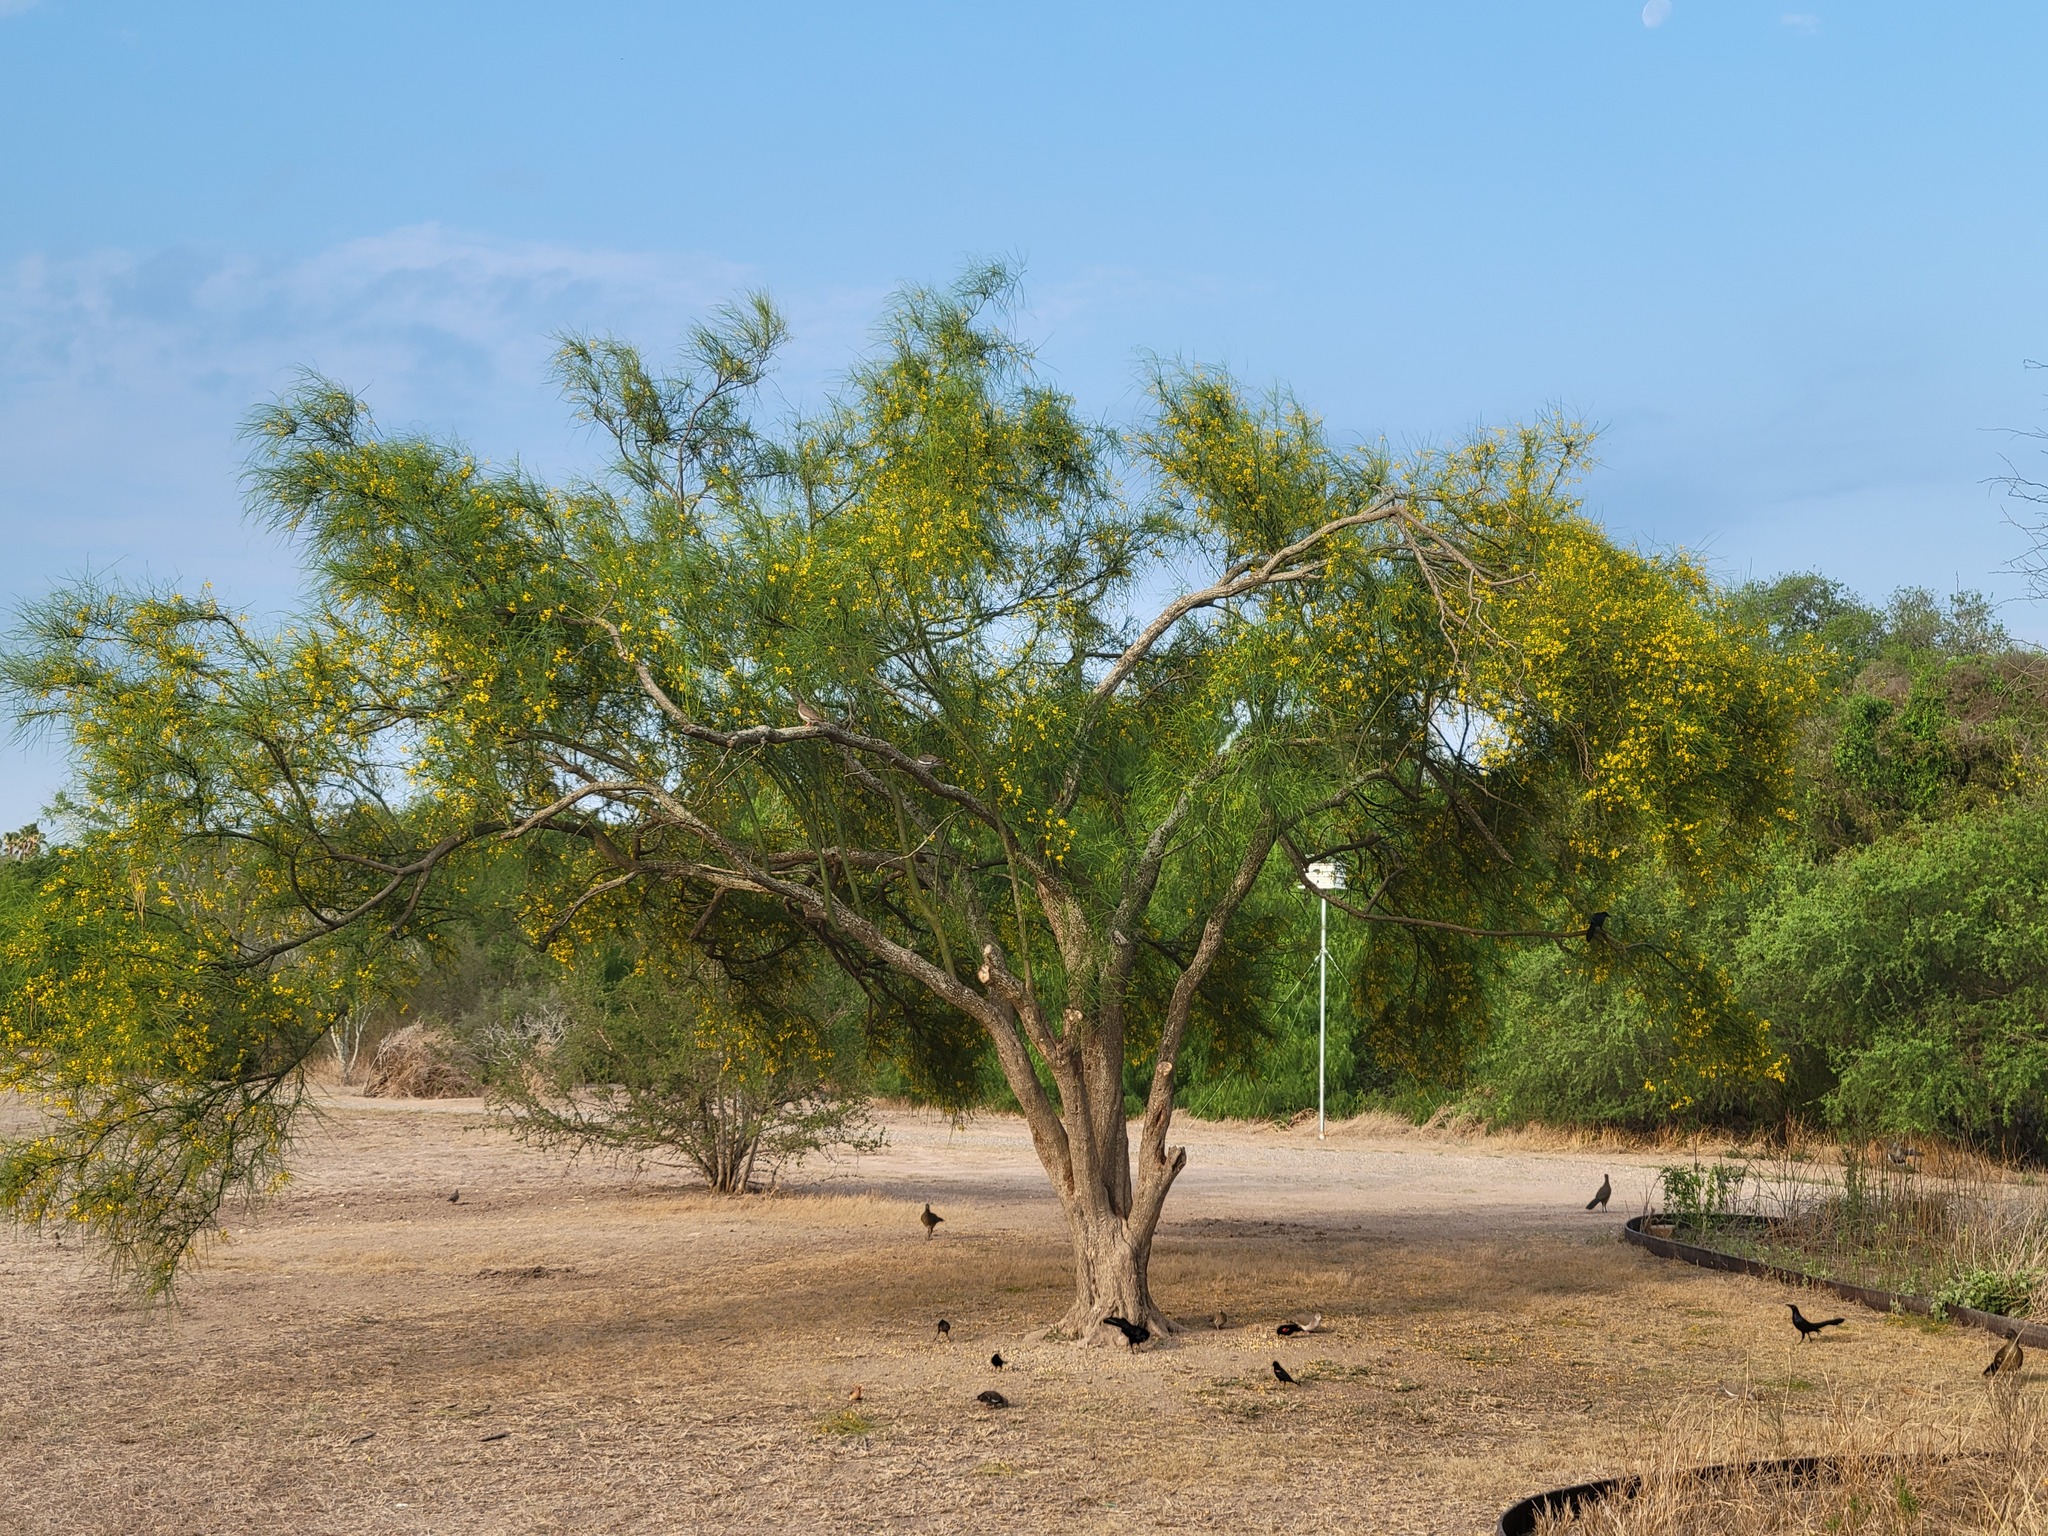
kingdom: Plantae
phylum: Tracheophyta
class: Magnoliopsida
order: Fabales
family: Fabaceae
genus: Parkinsonia
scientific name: Parkinsonia aculeata
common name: Jerusalem thorn
